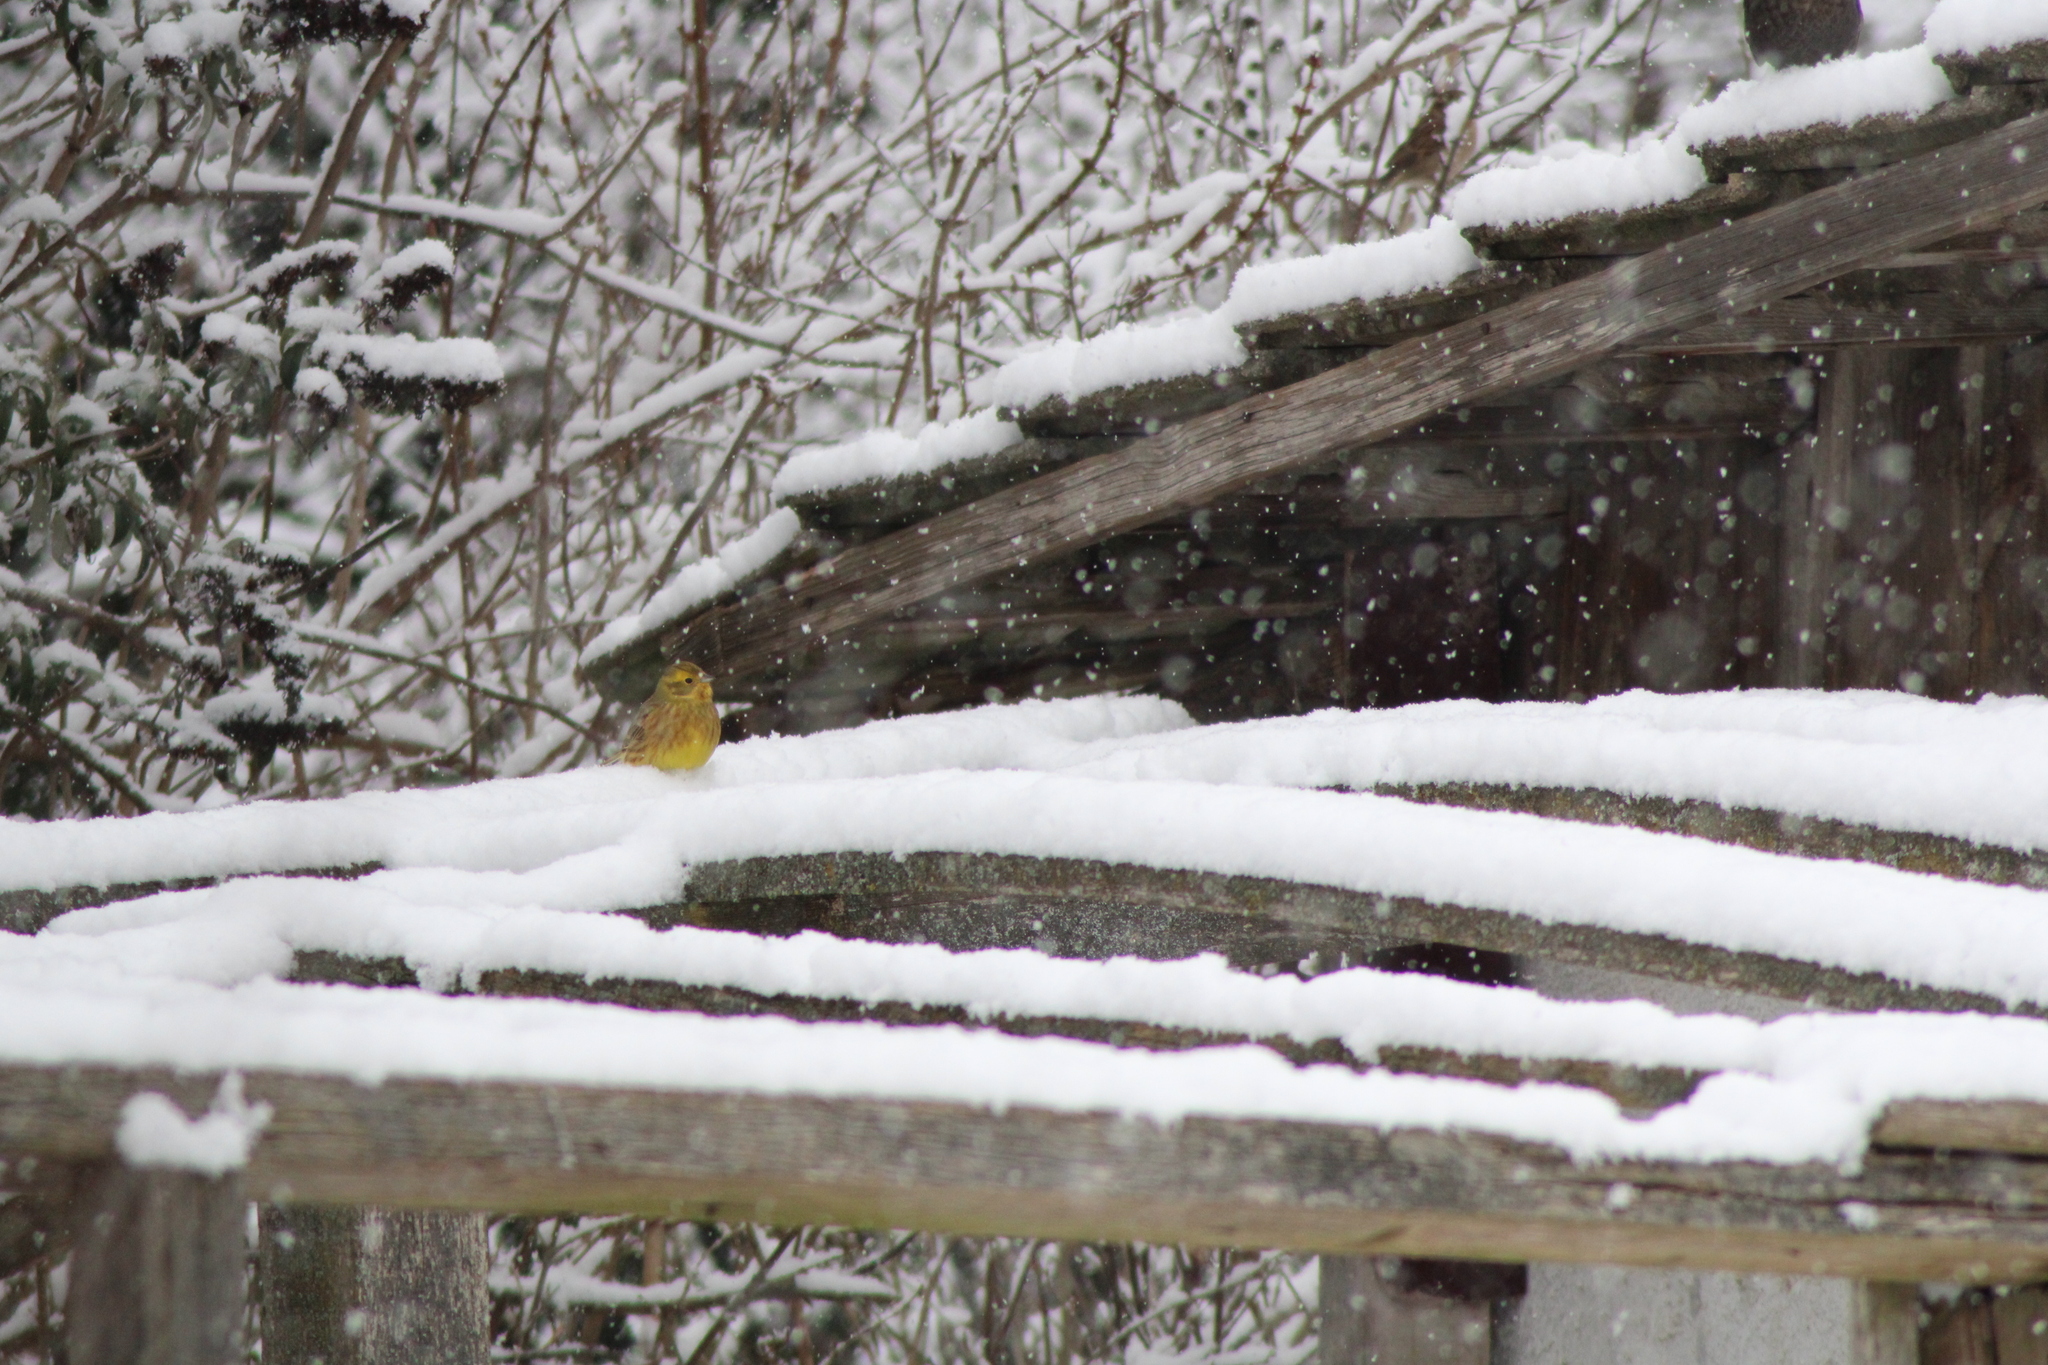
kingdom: Animalia
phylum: Chordata
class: Aves
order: Passeriformes
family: Emberizidae
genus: Emberiza
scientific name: Emberiza citrinella
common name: Yellowhammer
